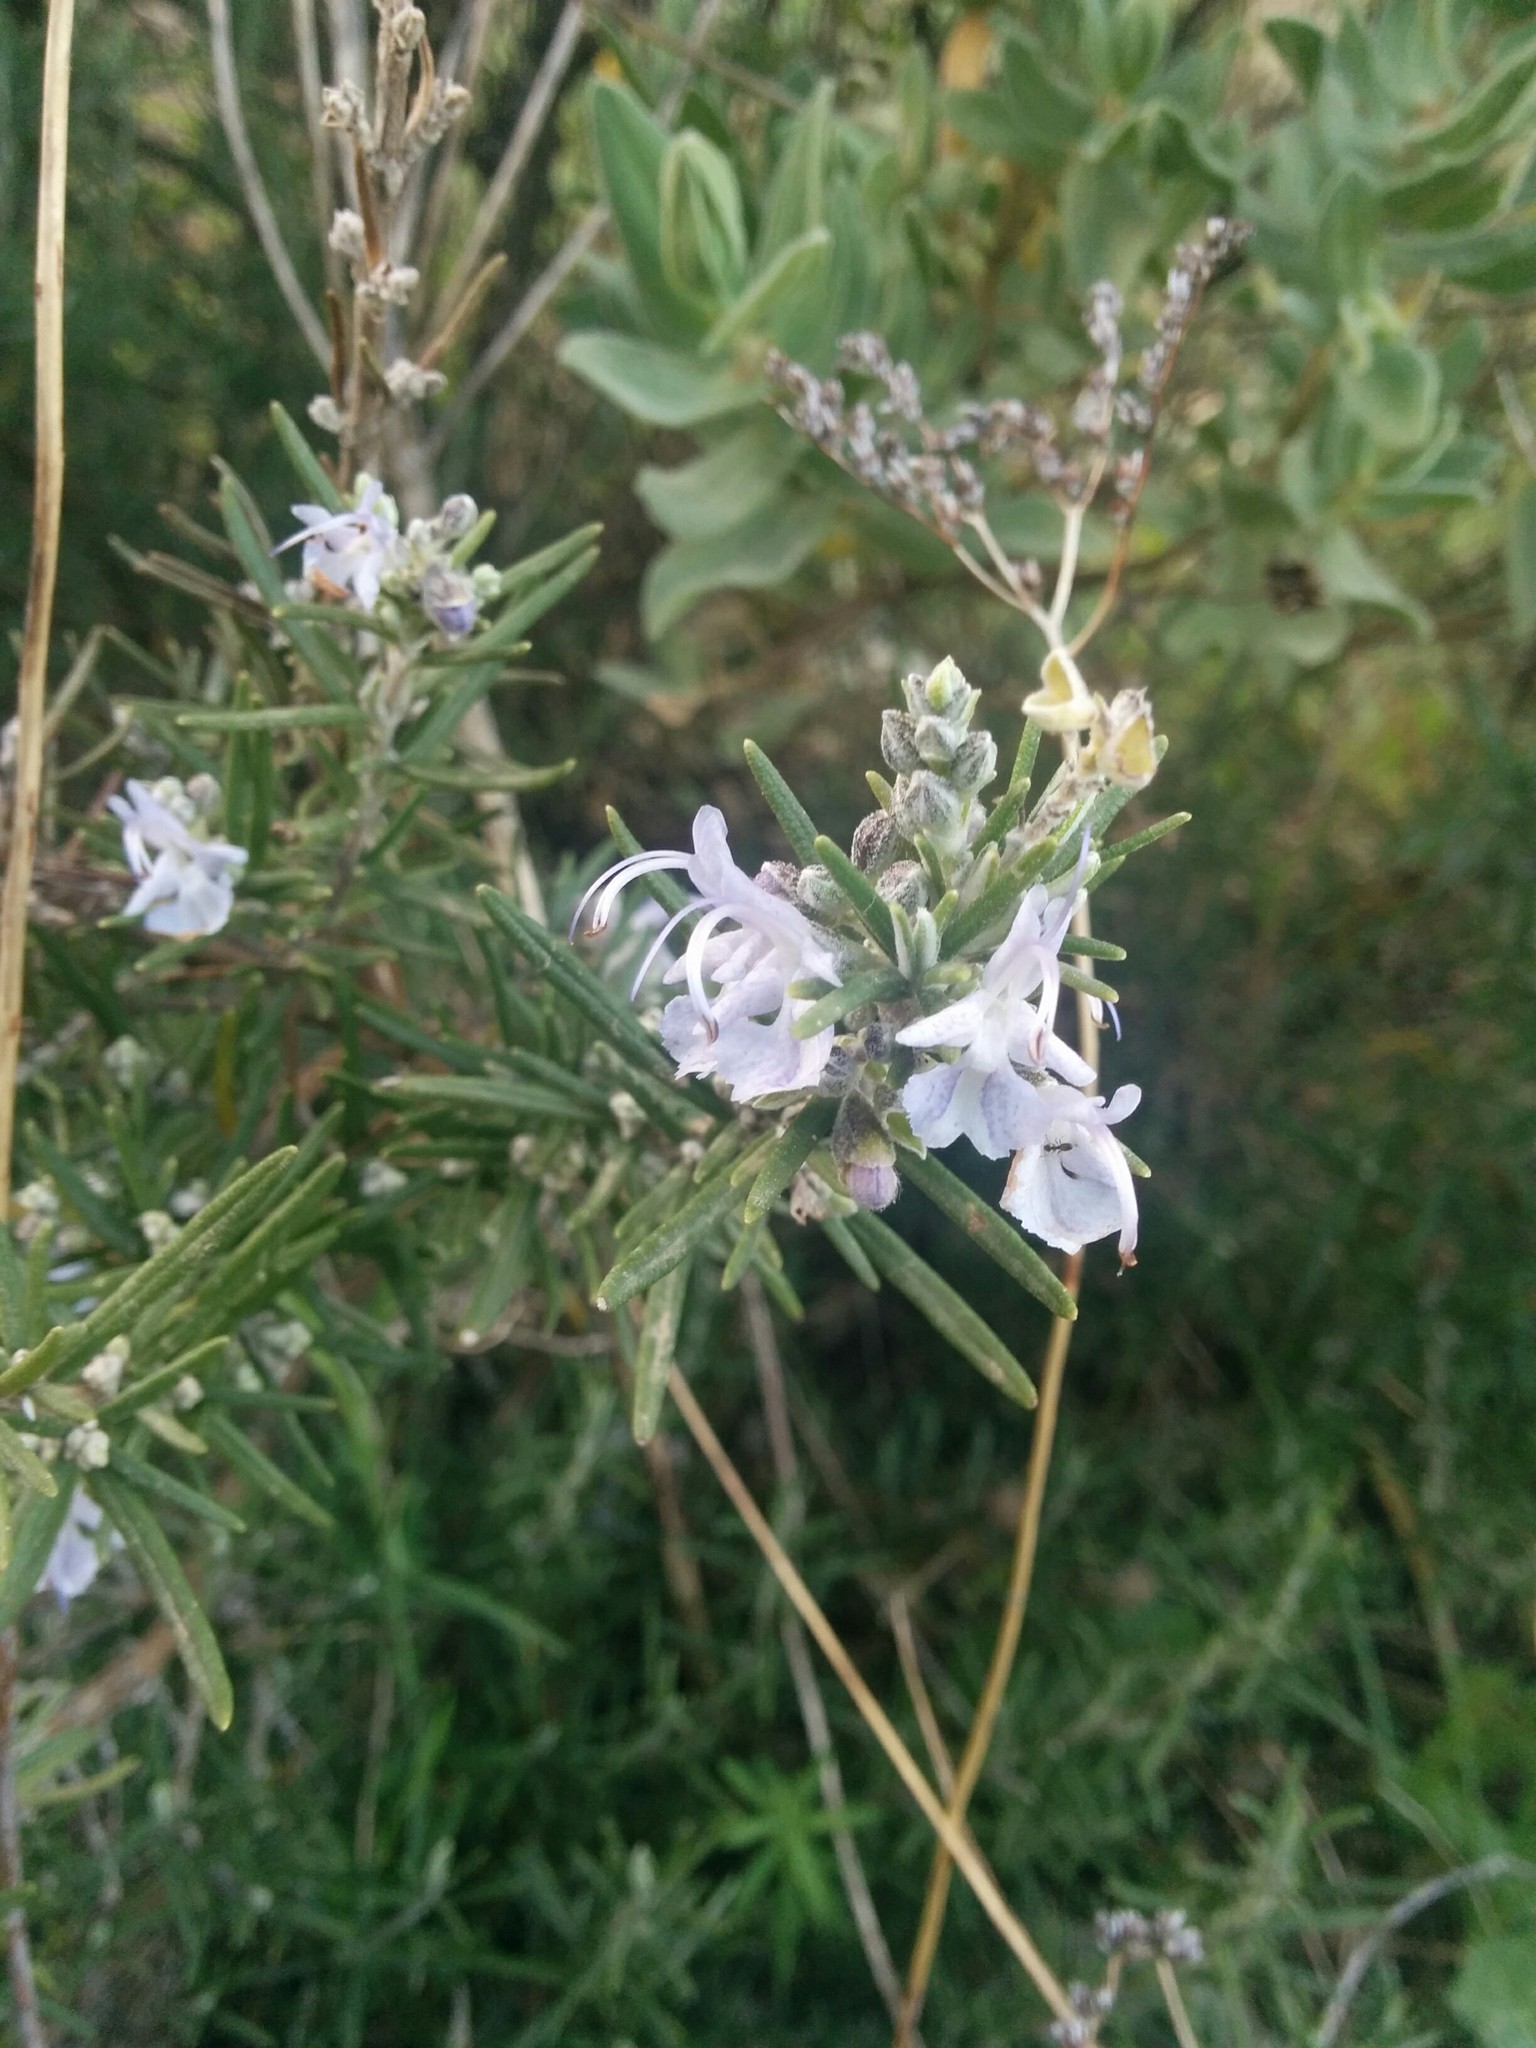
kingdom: Plantae
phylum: Tracheophyta
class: Magnoliopsida
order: Lamiales
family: Lamiaceae
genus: Salvia
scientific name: Salvia rosmarinus
